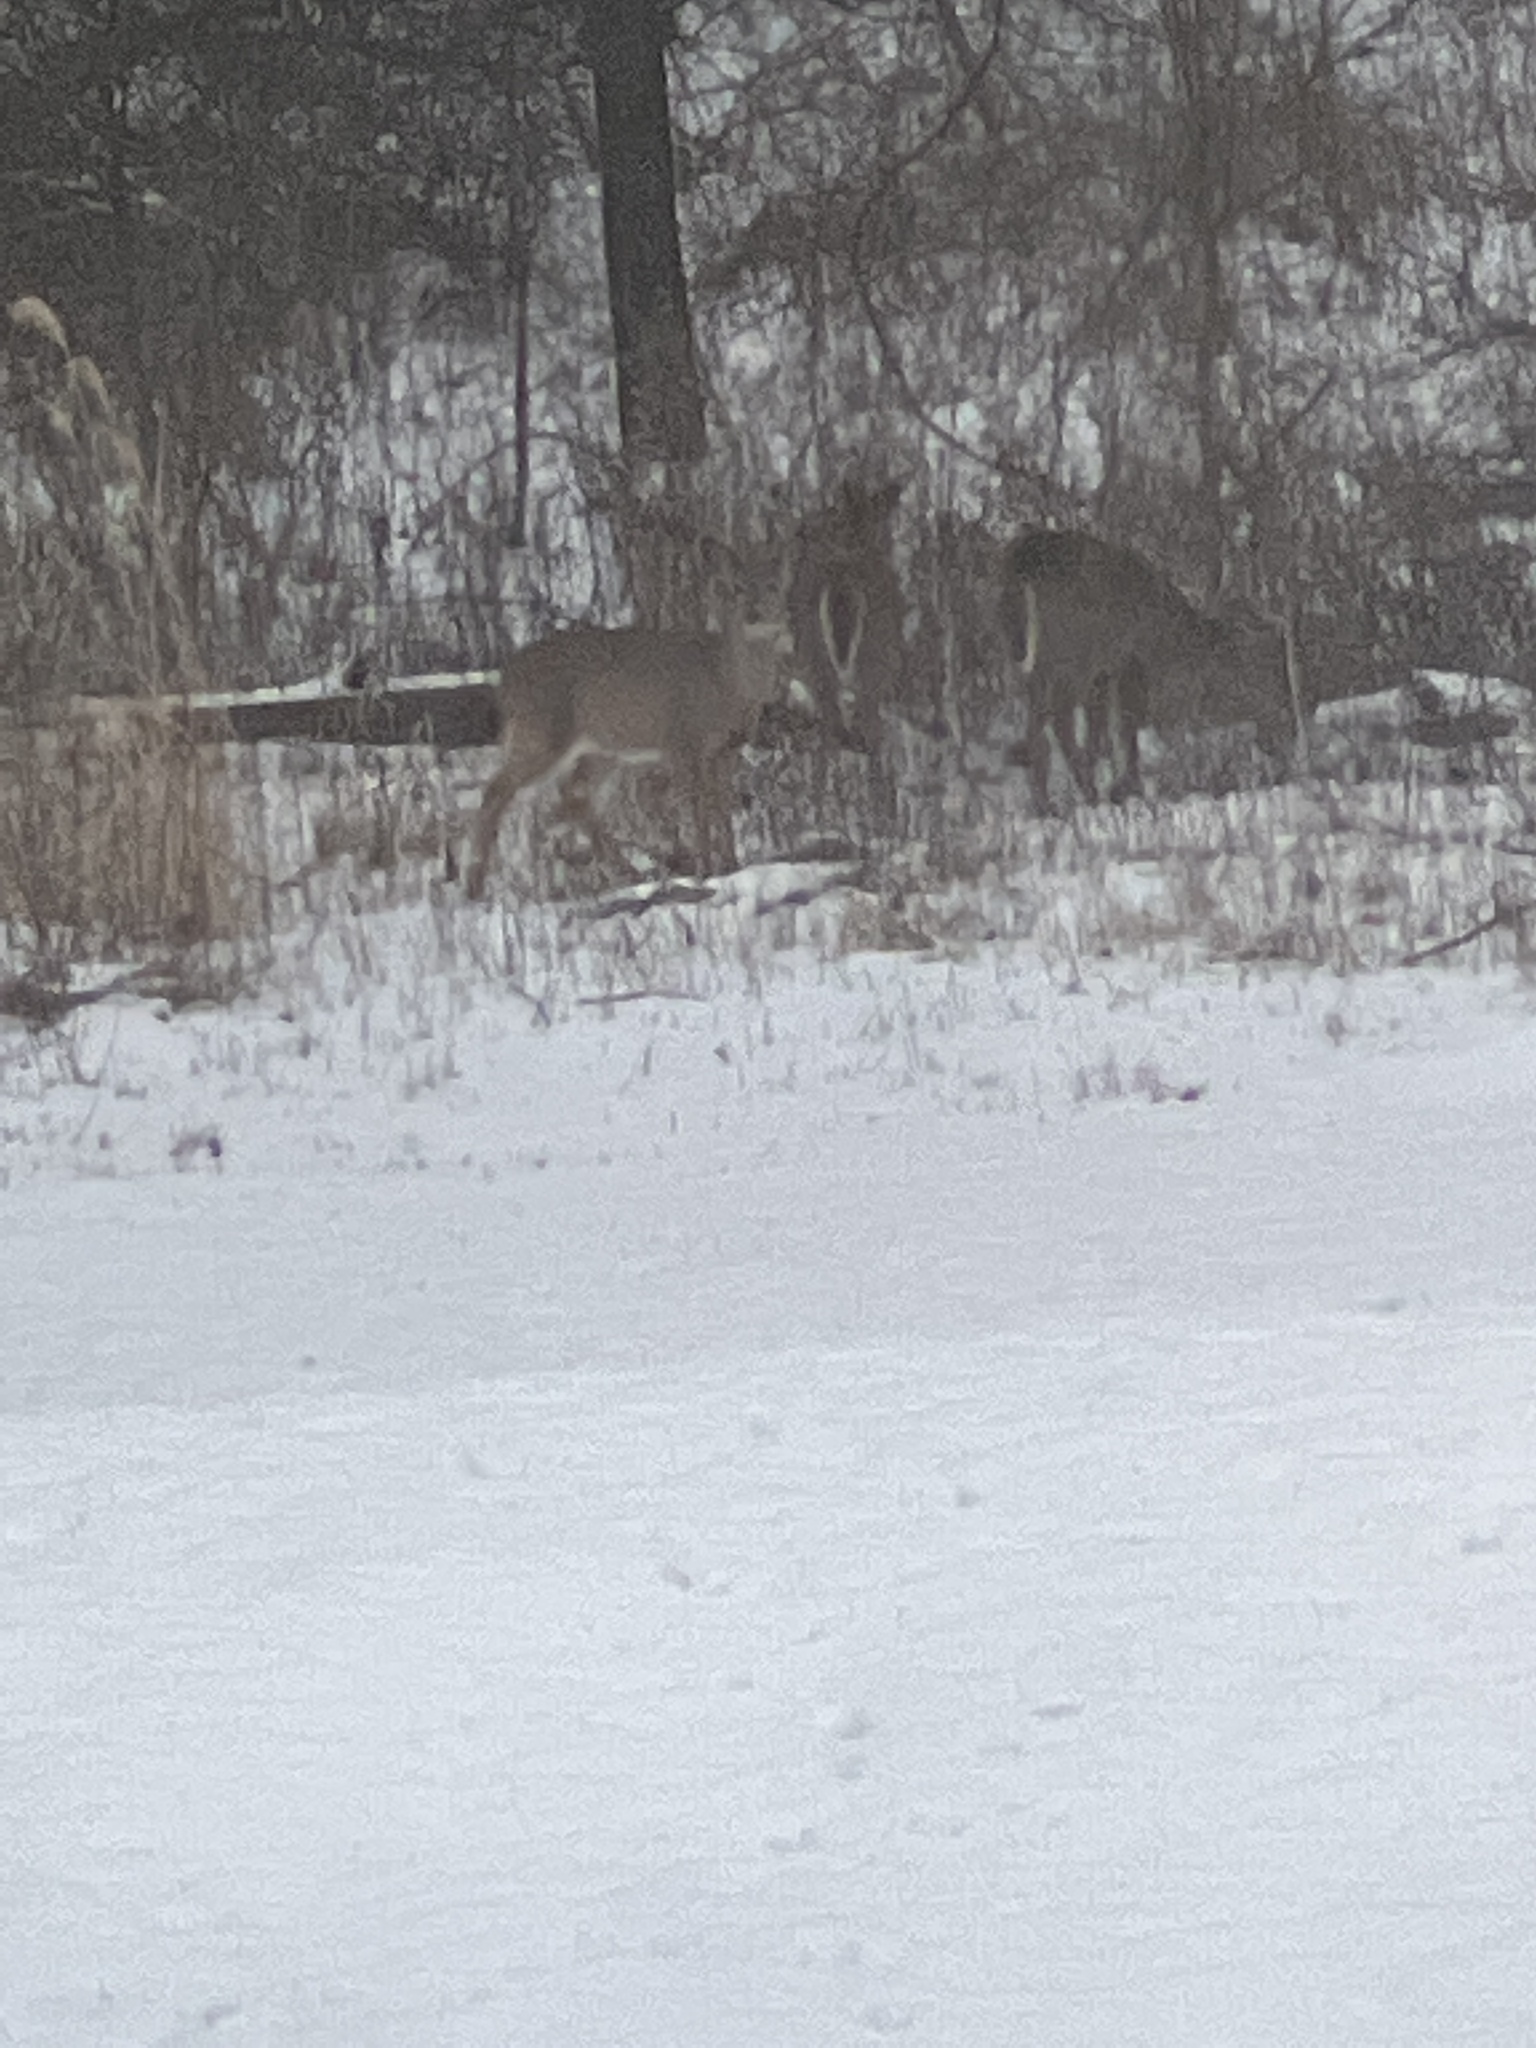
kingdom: Animalia
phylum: Chordata
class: Mammalia
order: Artiodactyla
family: Cervidae
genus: Odocoileus
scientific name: Odocoileus virginianus
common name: White-tailed deer
